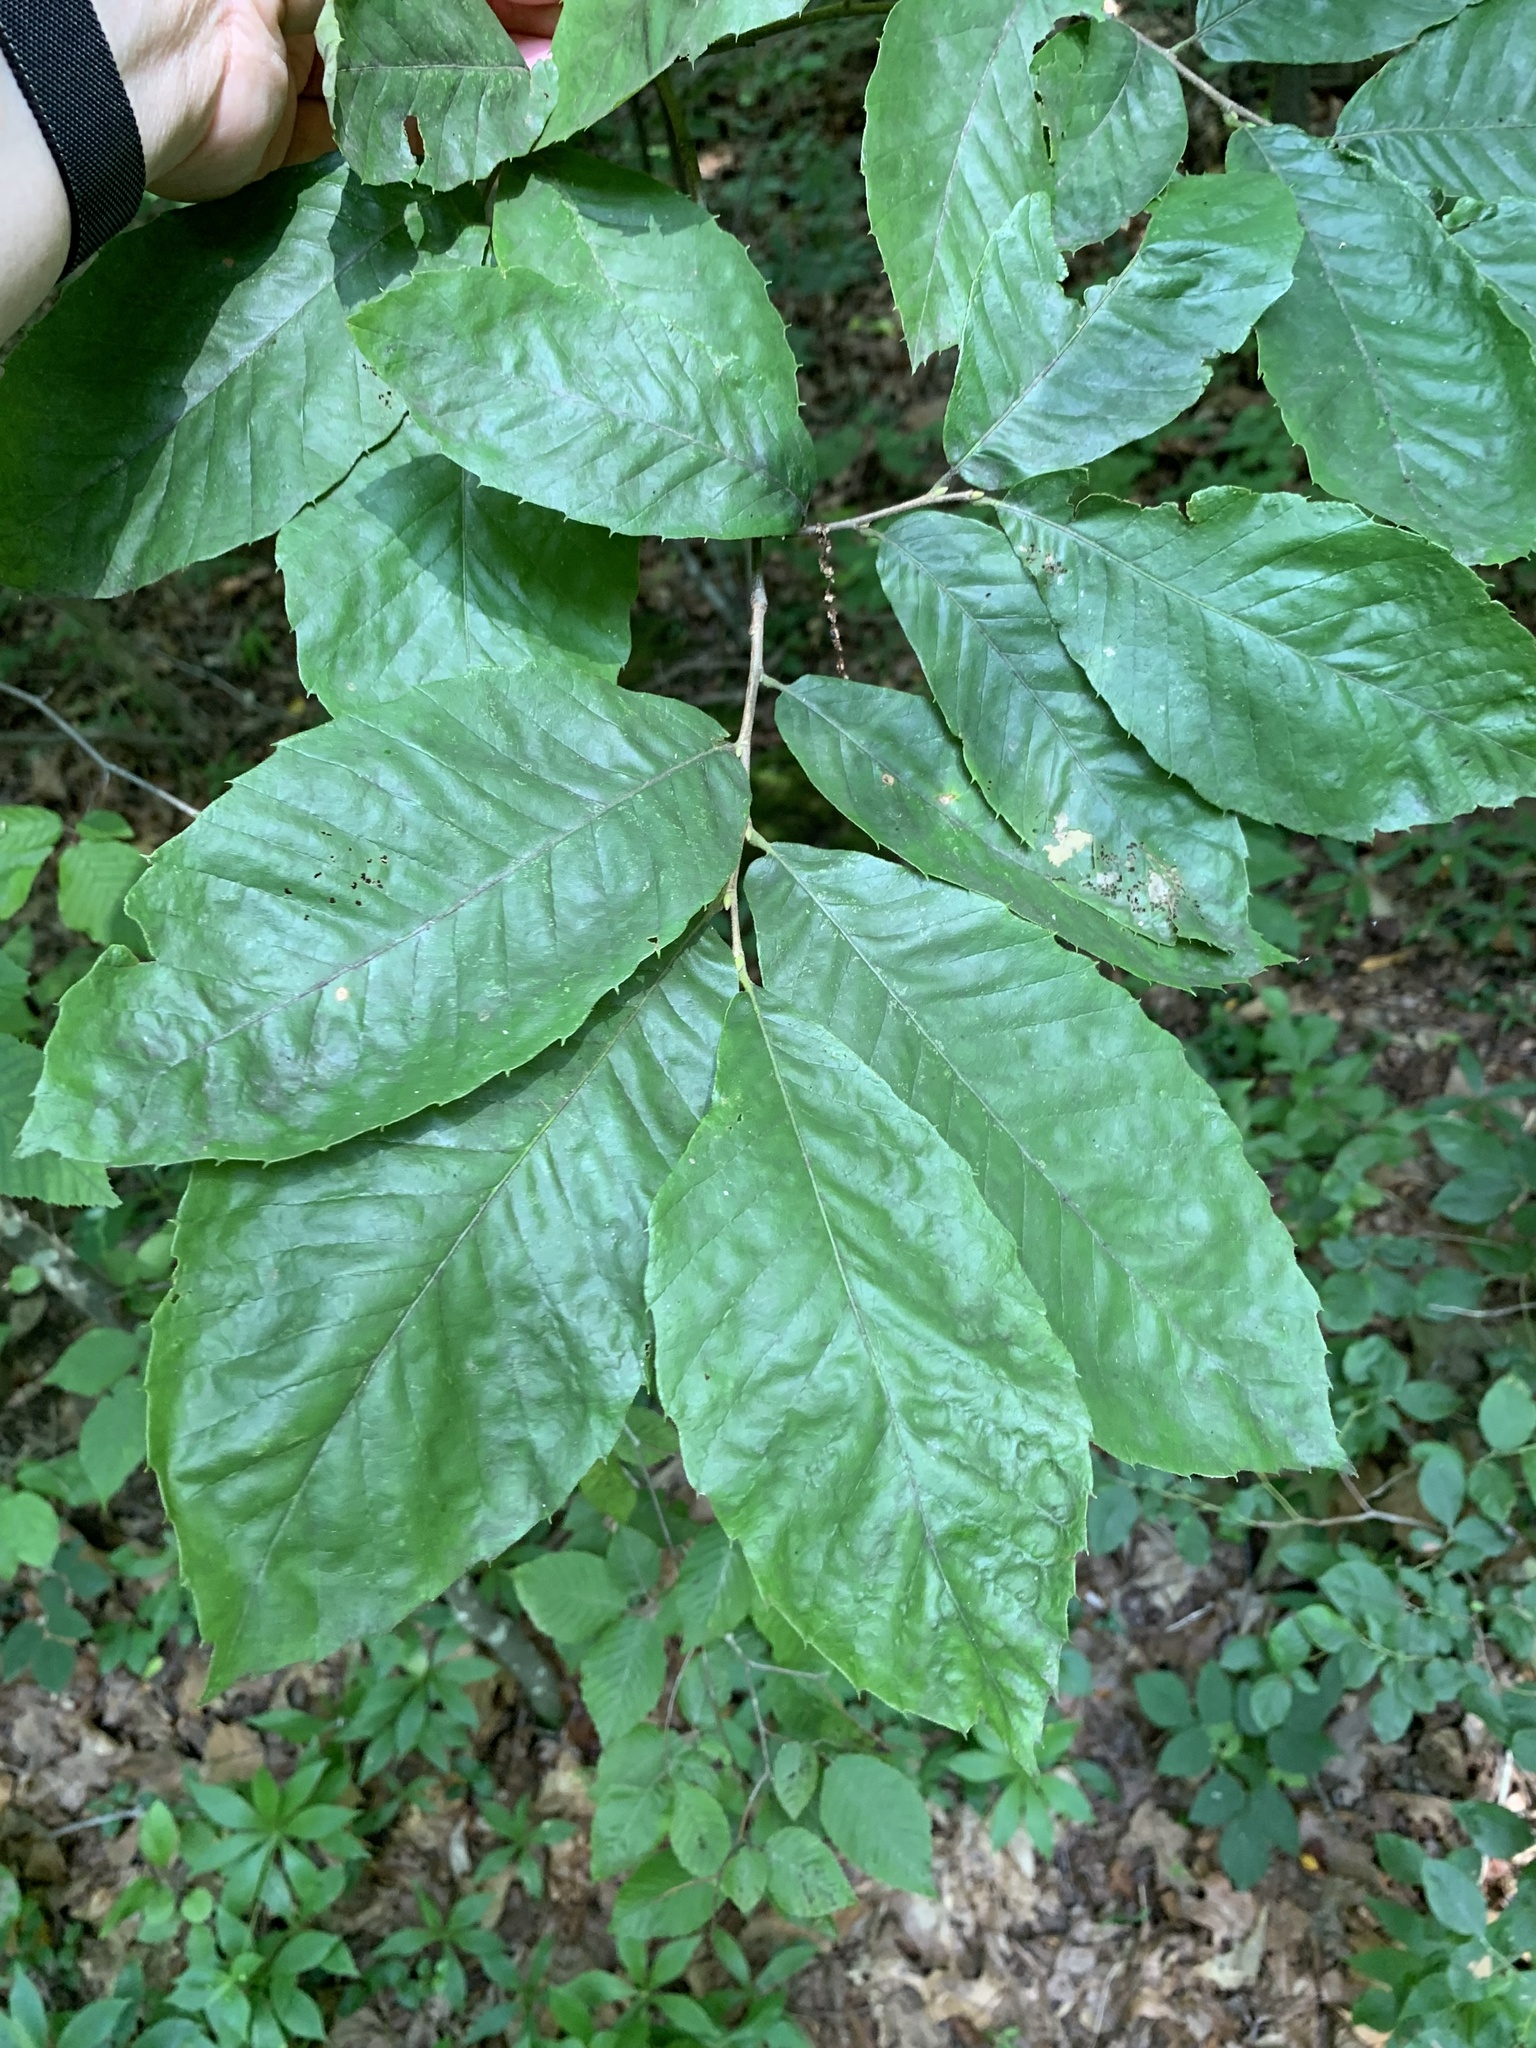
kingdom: Plantae
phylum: Tracheophyta
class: Magnoliopsida
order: Fagales
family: Fagaceae
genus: Castanea
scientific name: Castanea pumila
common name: Chinkapin
